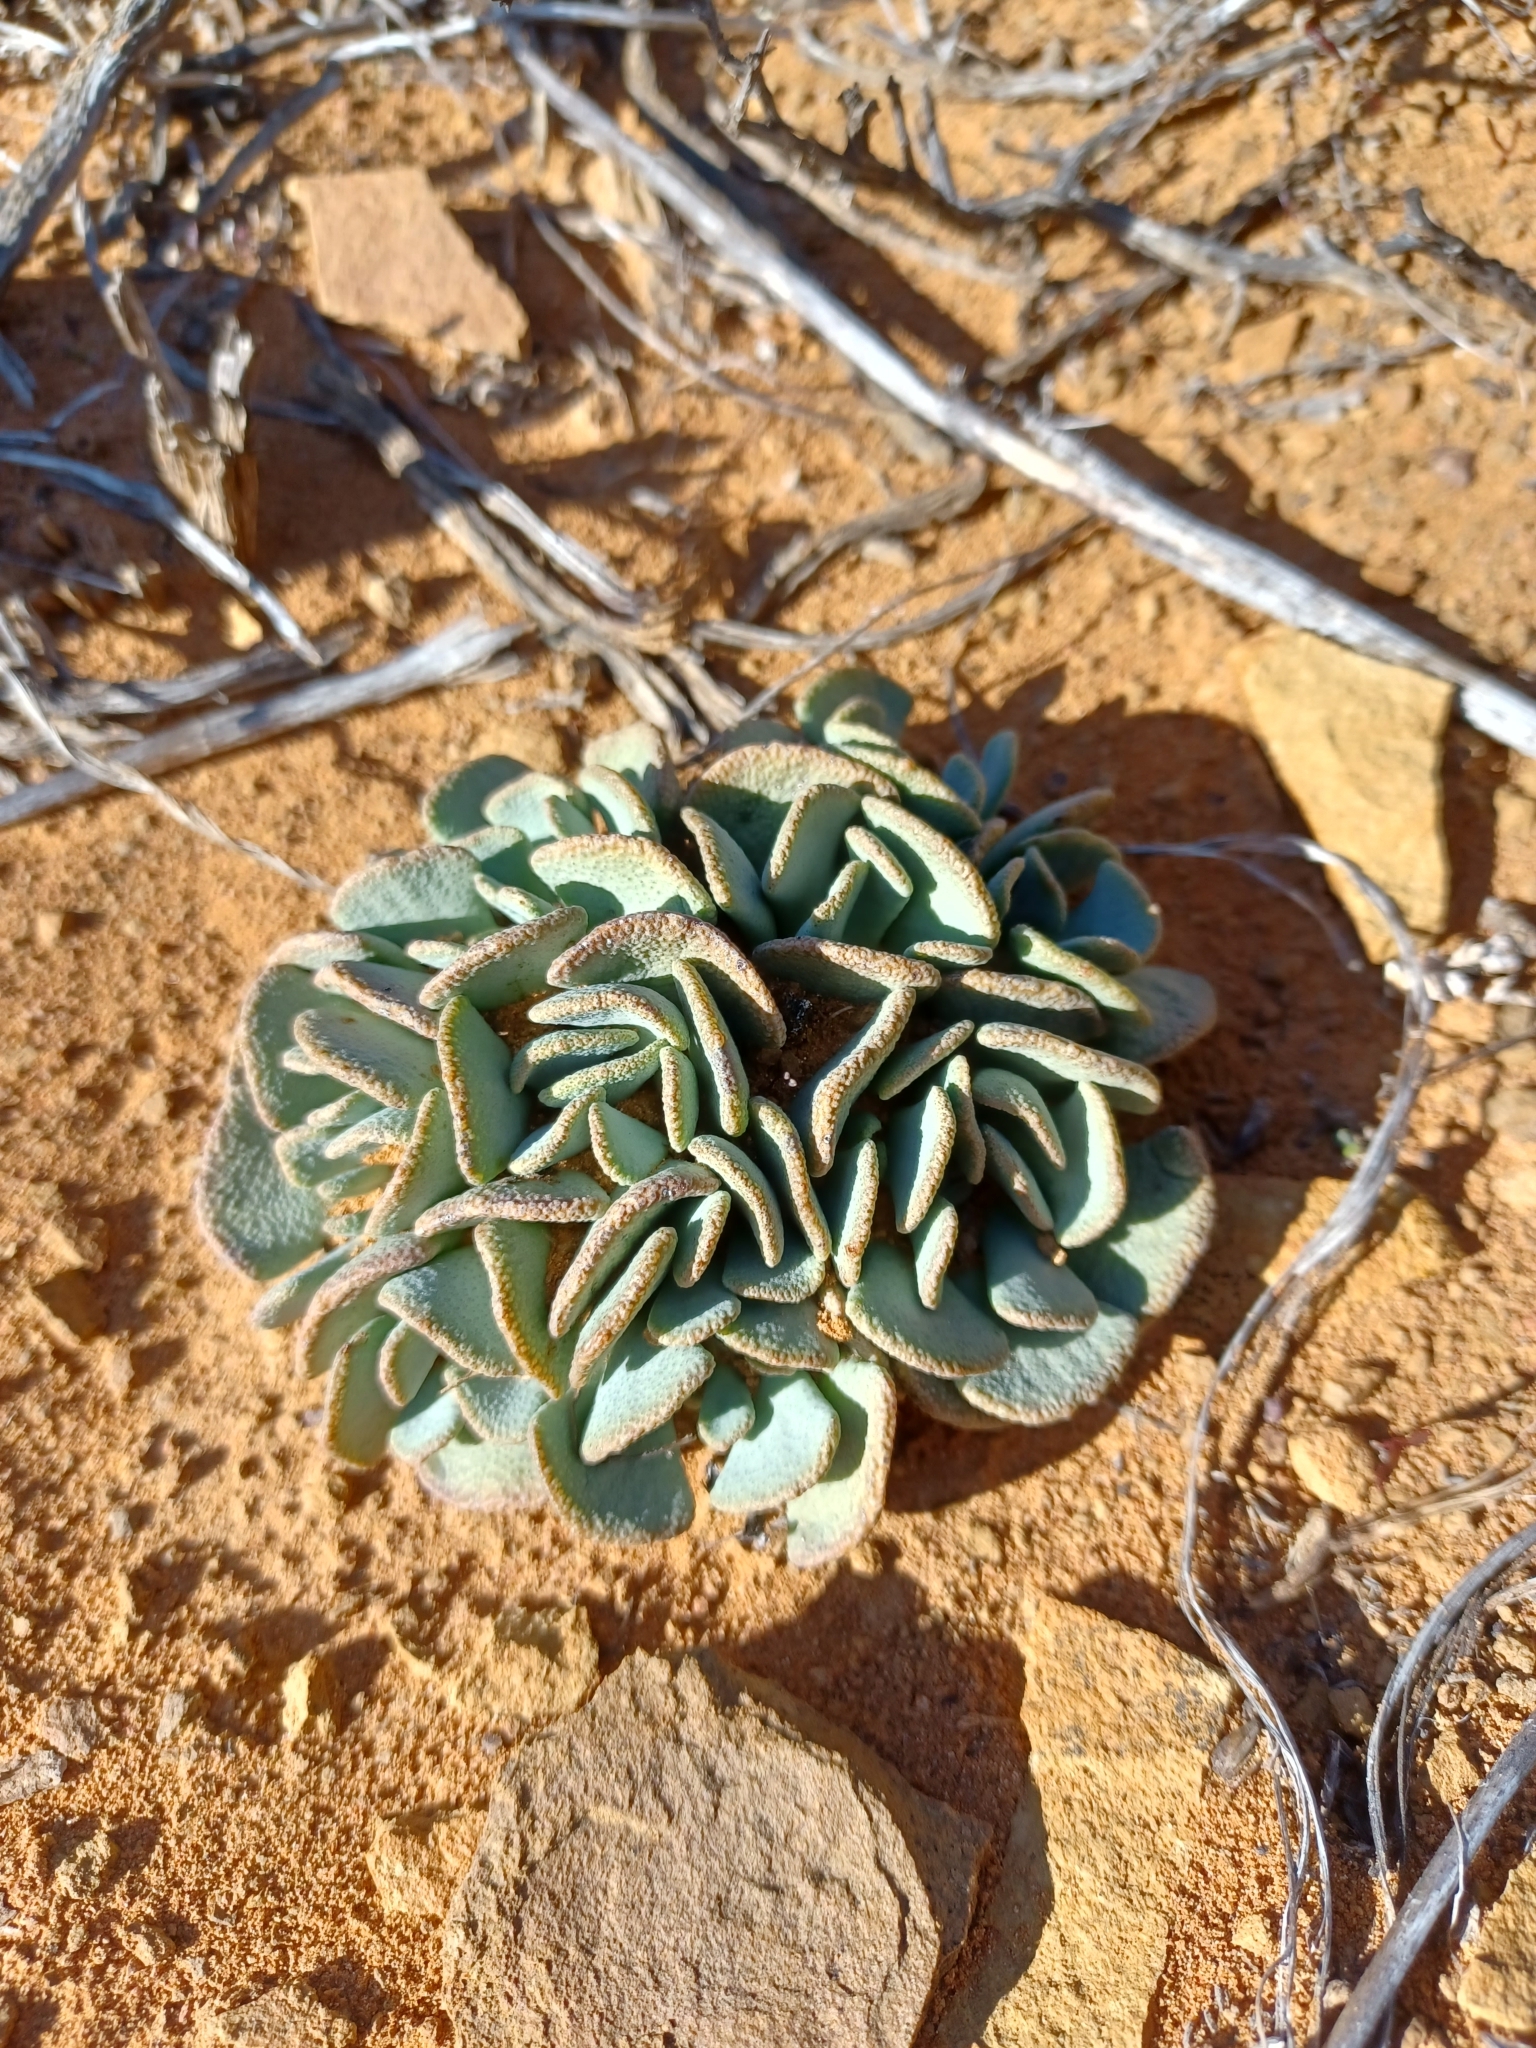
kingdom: Plantae
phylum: Tracheophyta
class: Magnoliopsida
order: Caryophyllales
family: Aizoaceae
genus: Aloinopsis
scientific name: Aloinopsis spathulata
